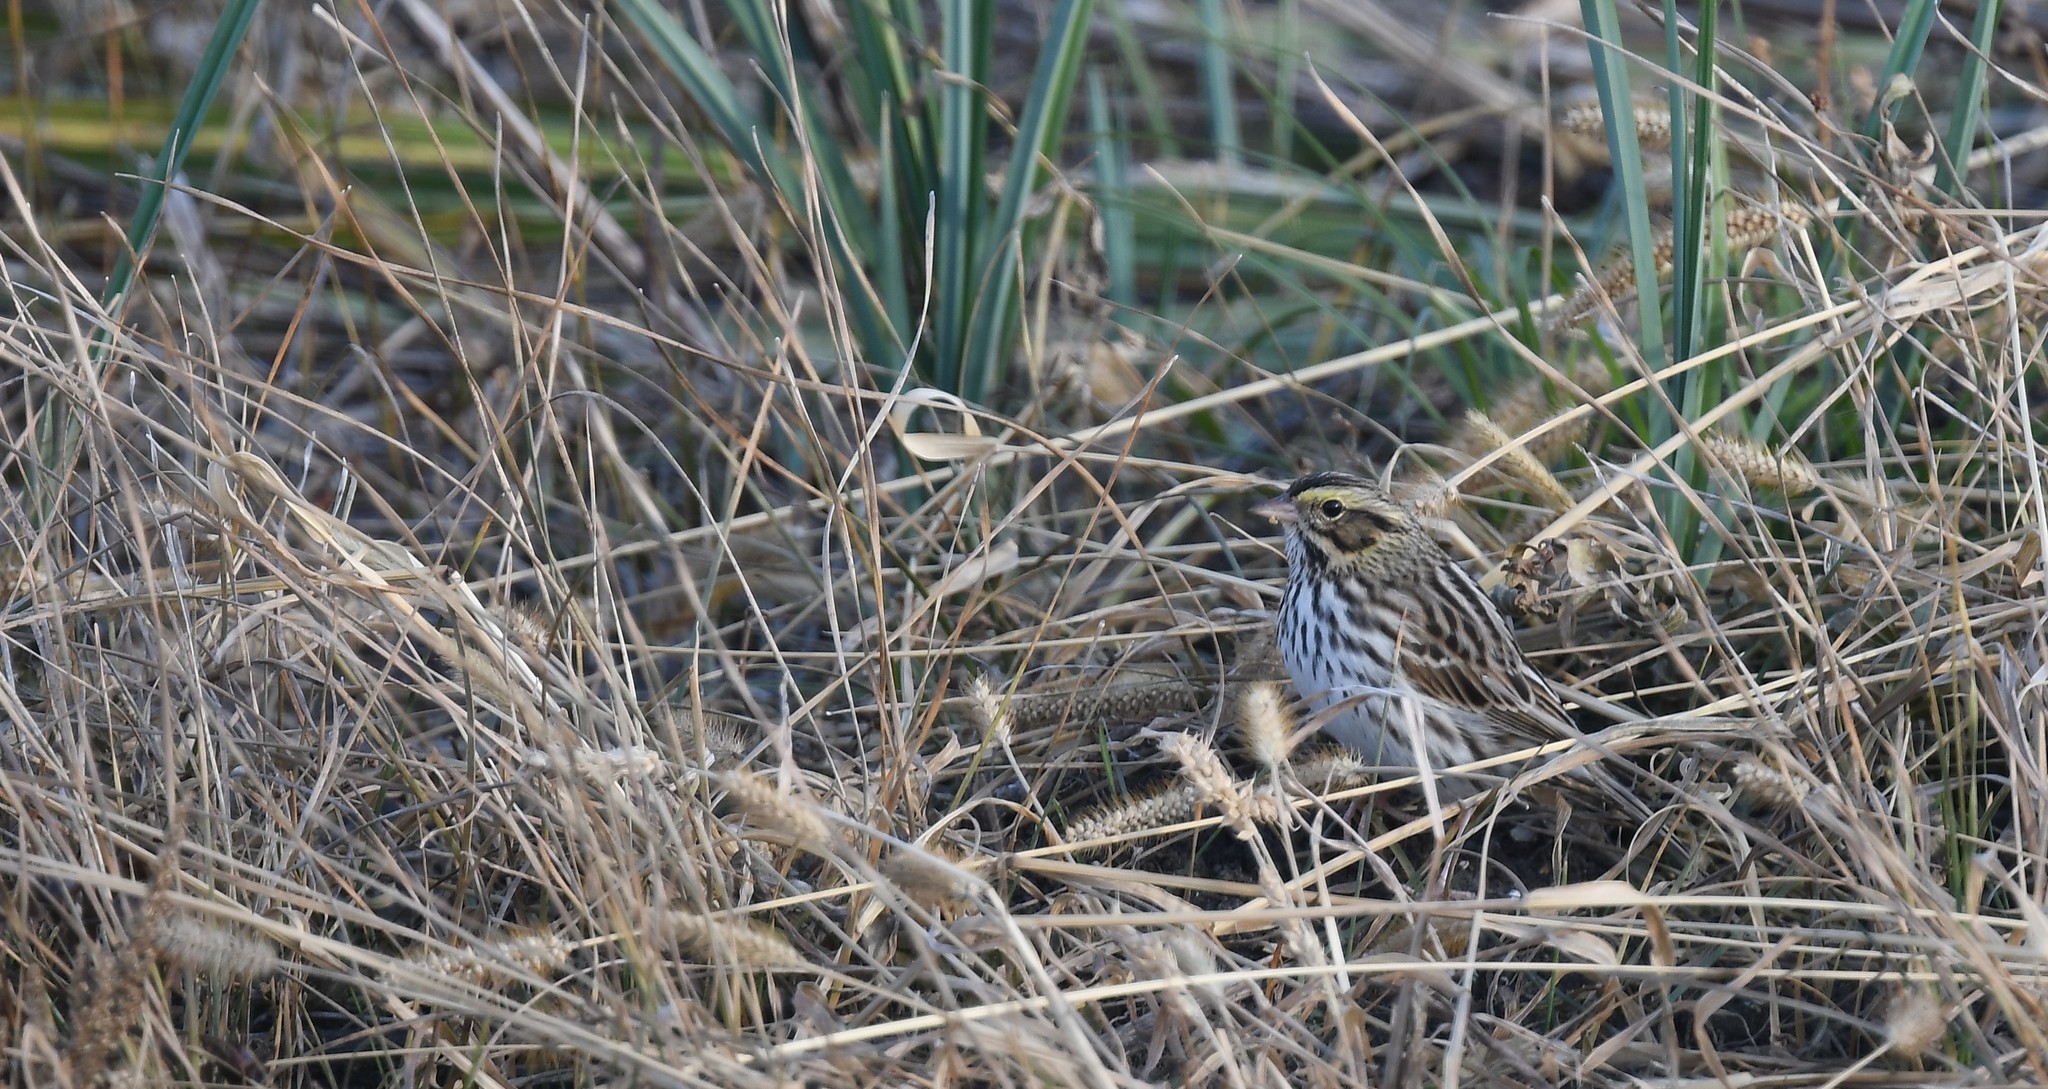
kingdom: Animalia
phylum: Chordata
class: Aves
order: Passeriformes
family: Passerellidae
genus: Passerculus
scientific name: Passerculus sandwichensis
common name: Savannah sparrow
